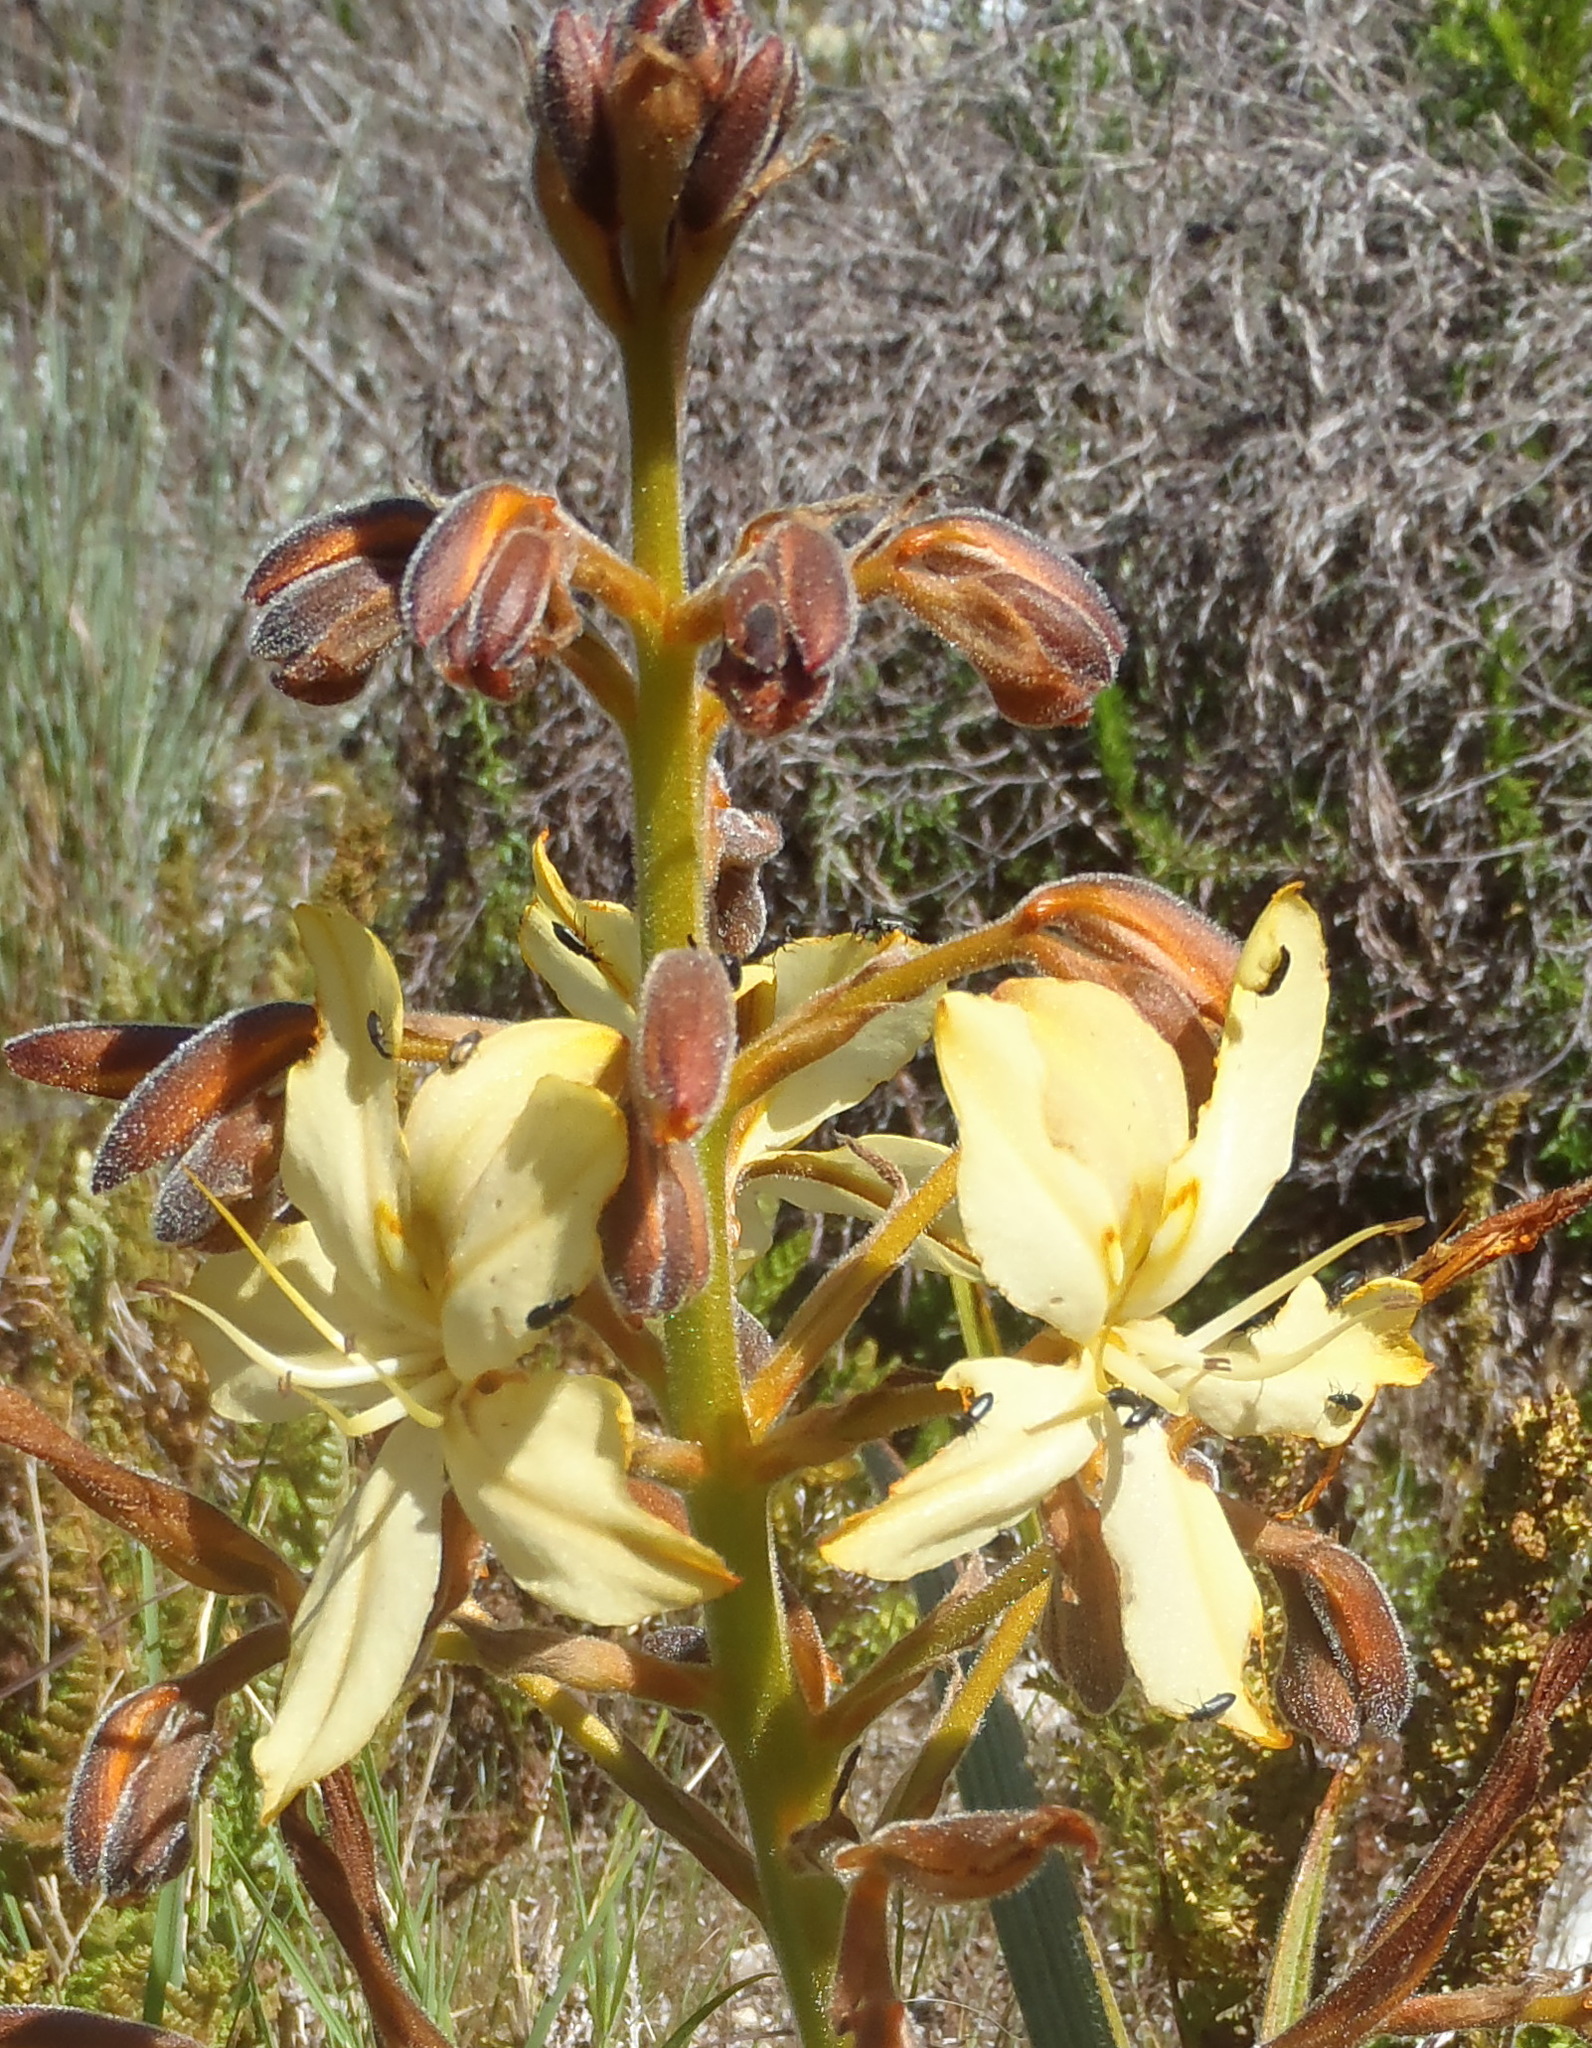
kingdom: Plantae
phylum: Tracheophyta
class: Liliopsida
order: Commelinales
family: Haemodoraceae
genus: Wachendorfia
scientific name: Wachendorfia paniculata
